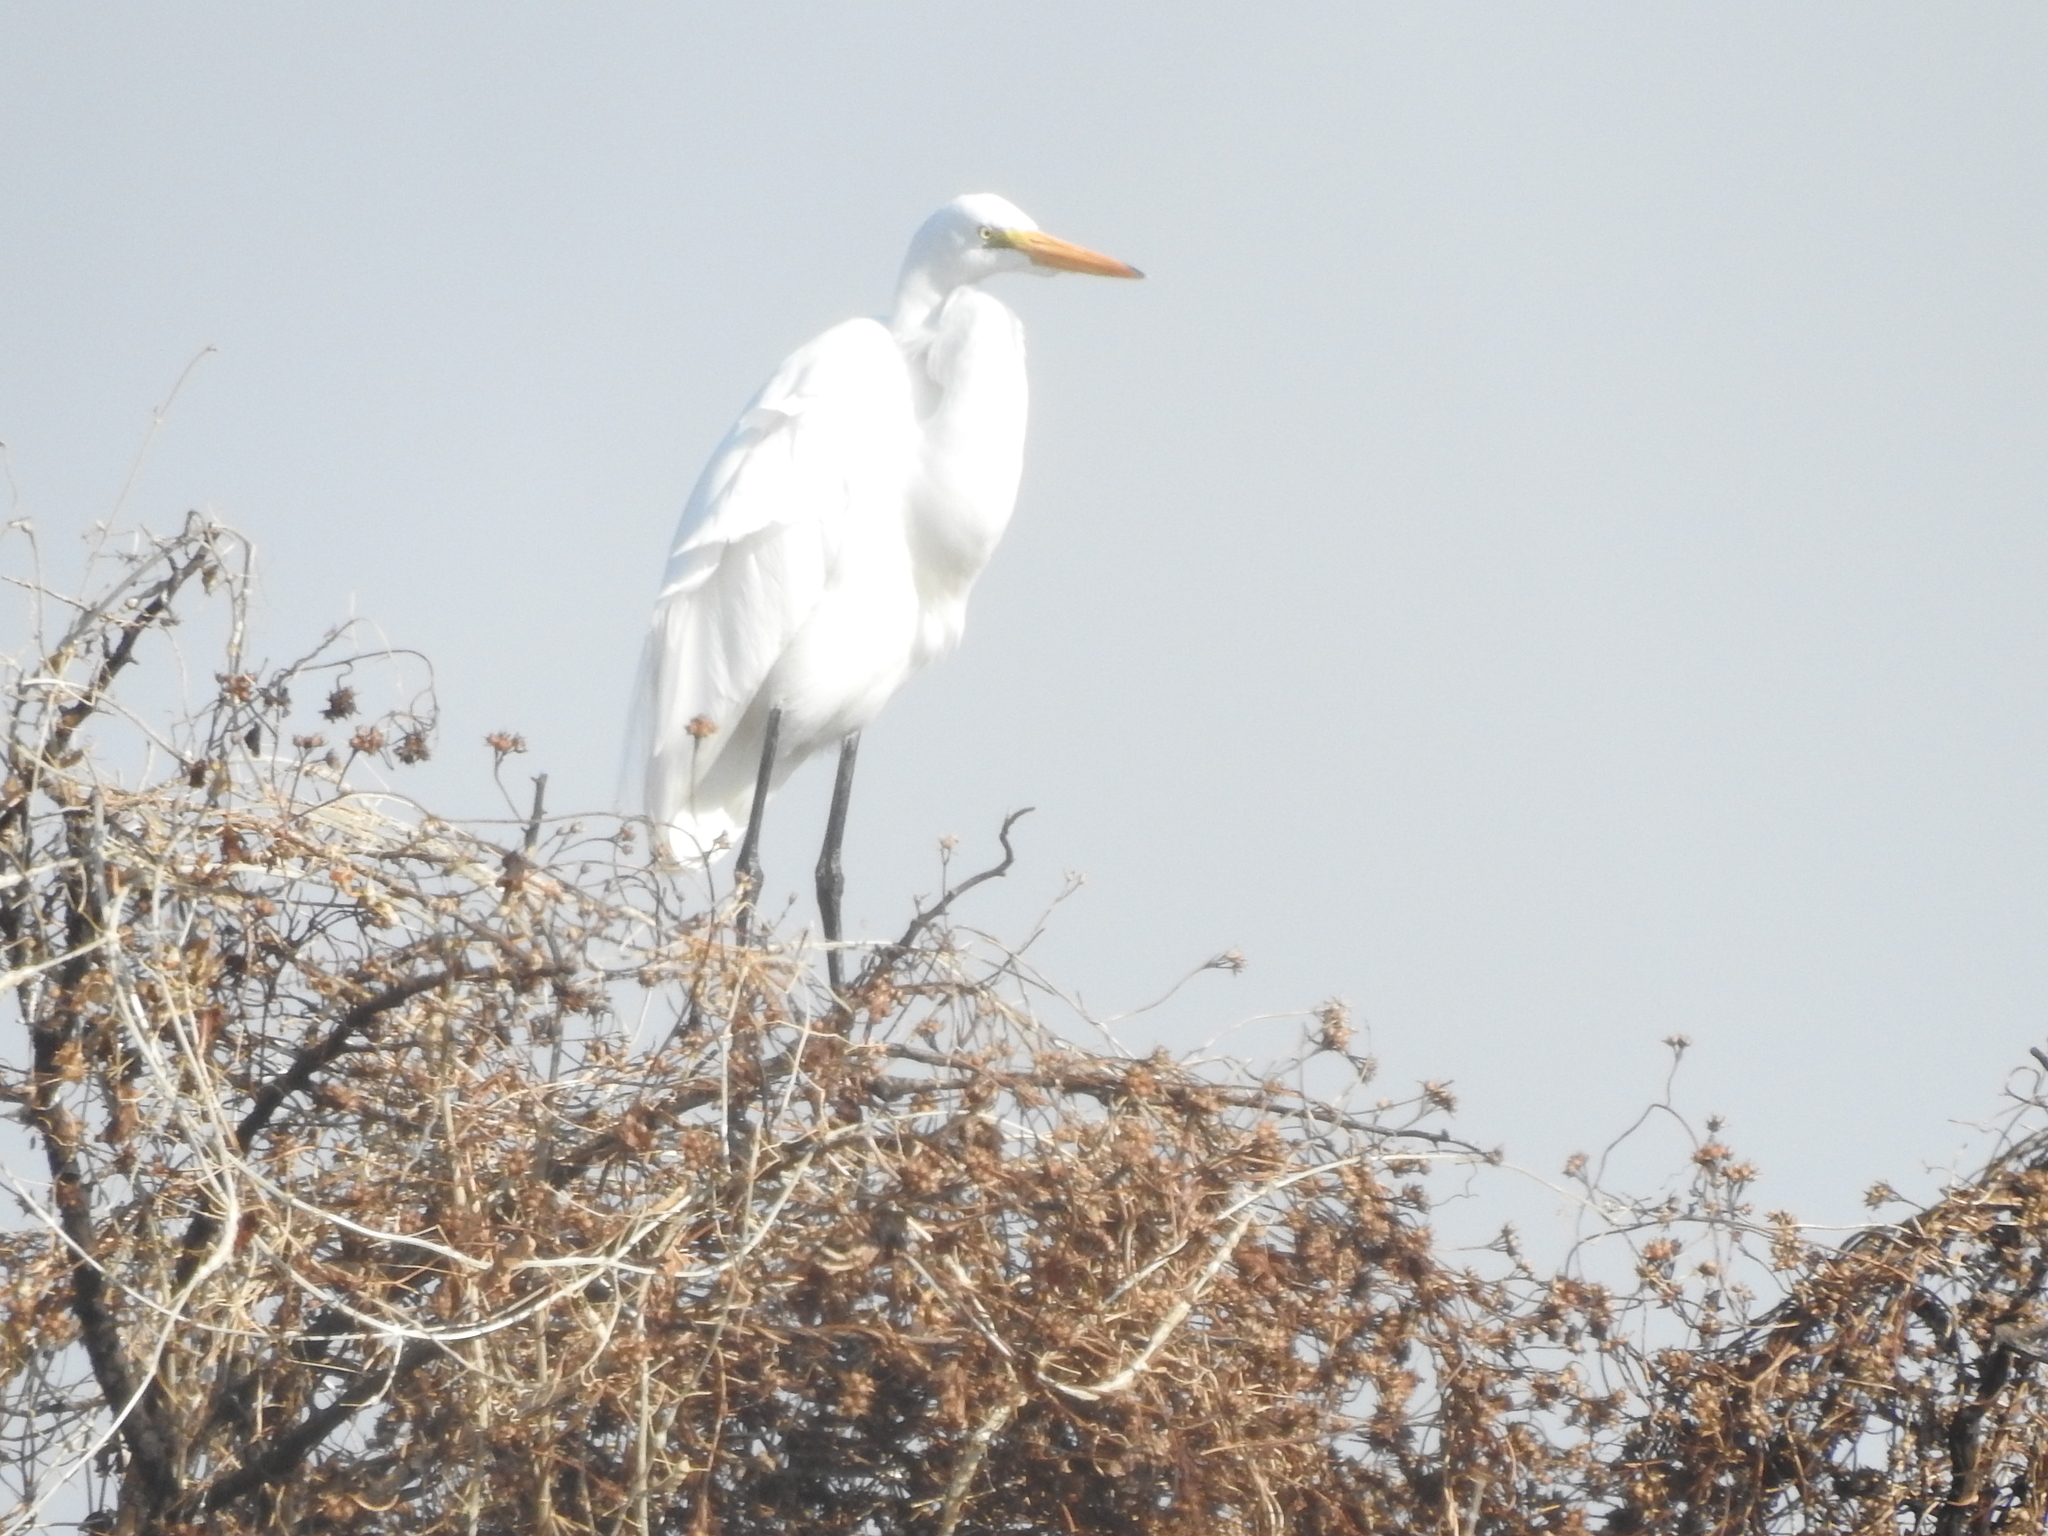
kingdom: Animalia
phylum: Chordata
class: Aves
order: Pelecaniformes
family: Ardeidae
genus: Ardea
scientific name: Ardea alba
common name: Great egret
